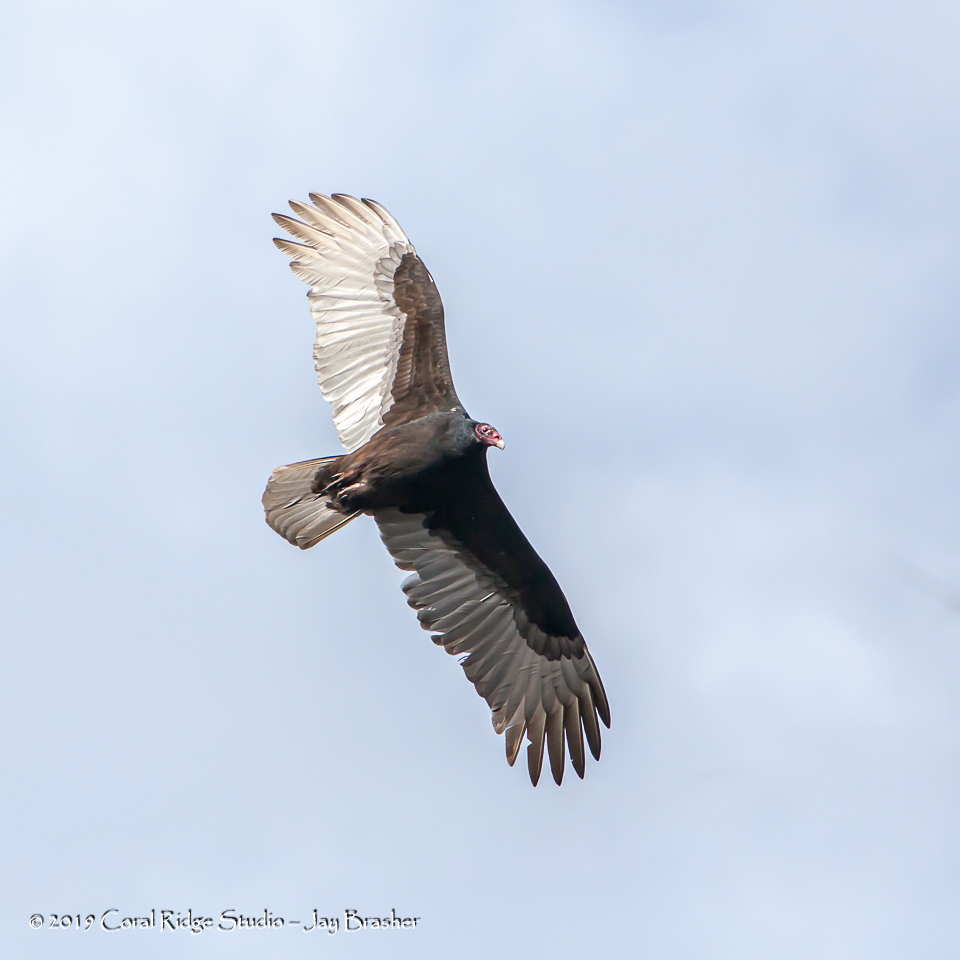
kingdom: Animalia
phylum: Chordata
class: Aves
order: Accipitriformes
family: Cathartidae
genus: Cathartes
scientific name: Cathartes aura
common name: Turkey vulture
